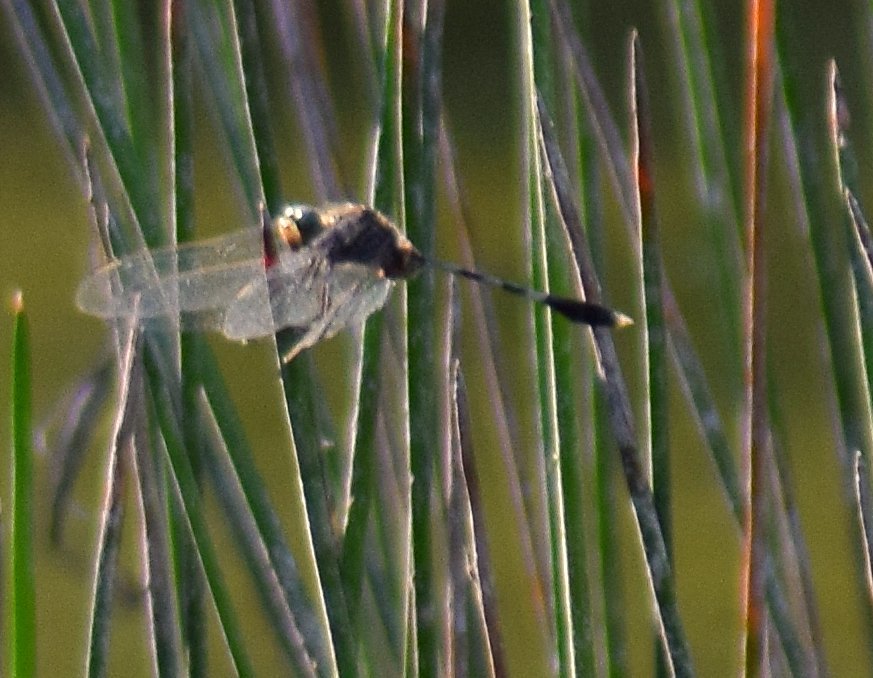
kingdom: Animalia
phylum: Arthropoda
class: Insecta
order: Odonata
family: Libellulidae
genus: Orthetrum
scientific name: Orthetrum sabina
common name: Slender skimmer
